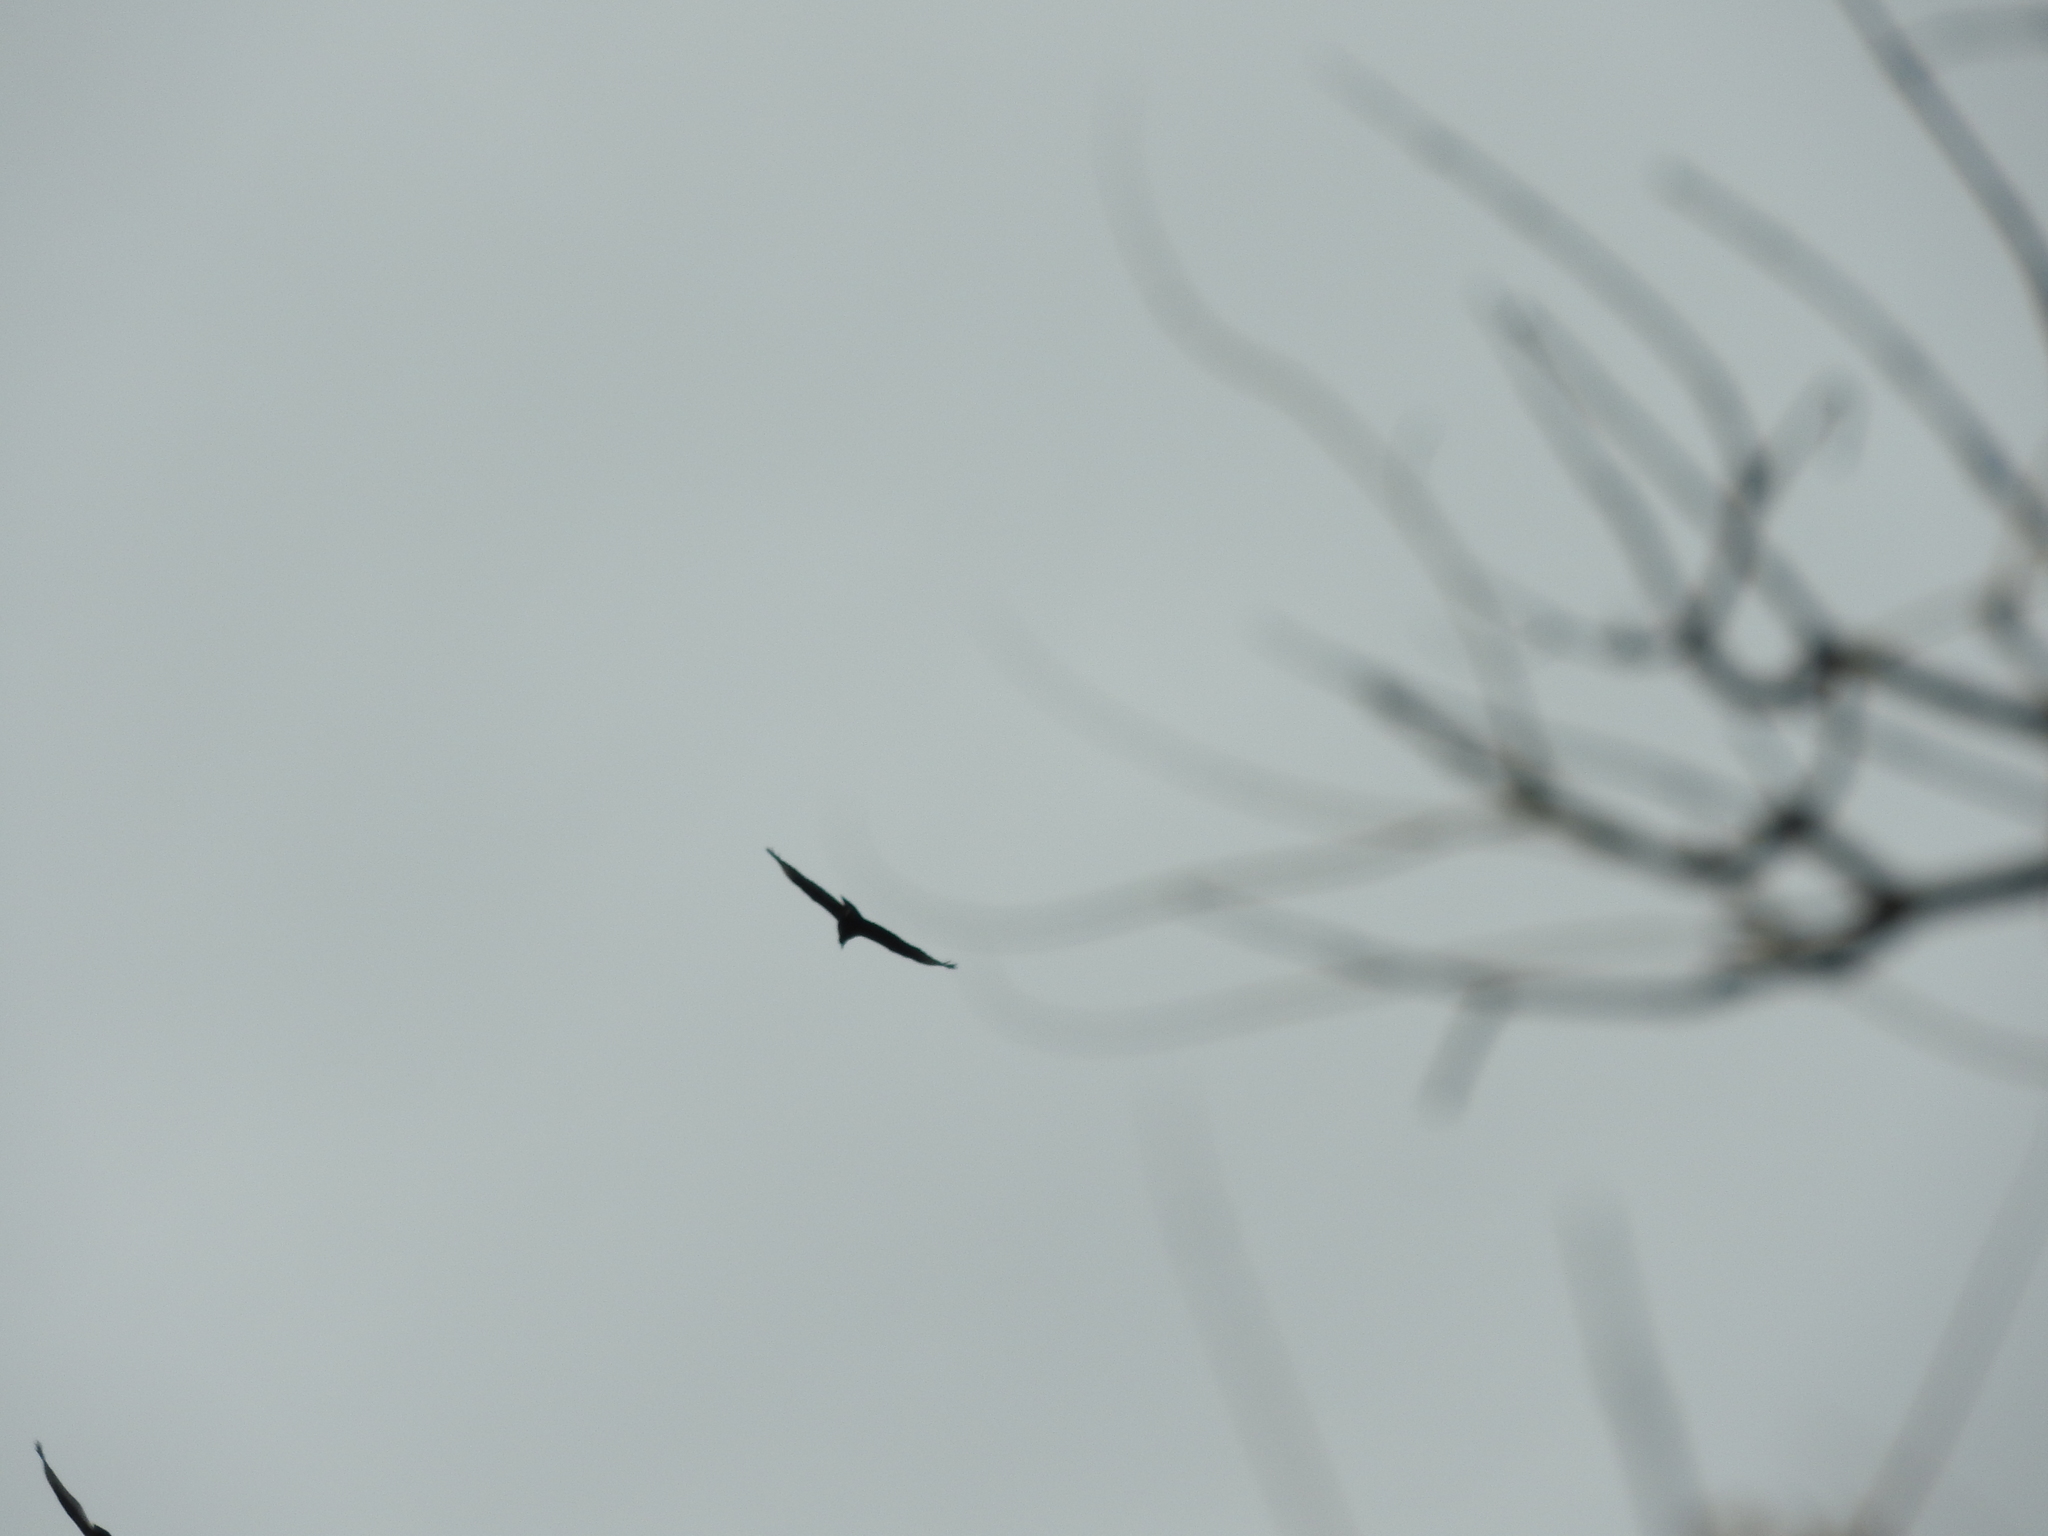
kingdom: Animalia
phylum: Chordata
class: Aves
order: Accipitriformes
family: Cathartidae
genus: Coragyps
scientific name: Coragyps atratus
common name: Black vulture
